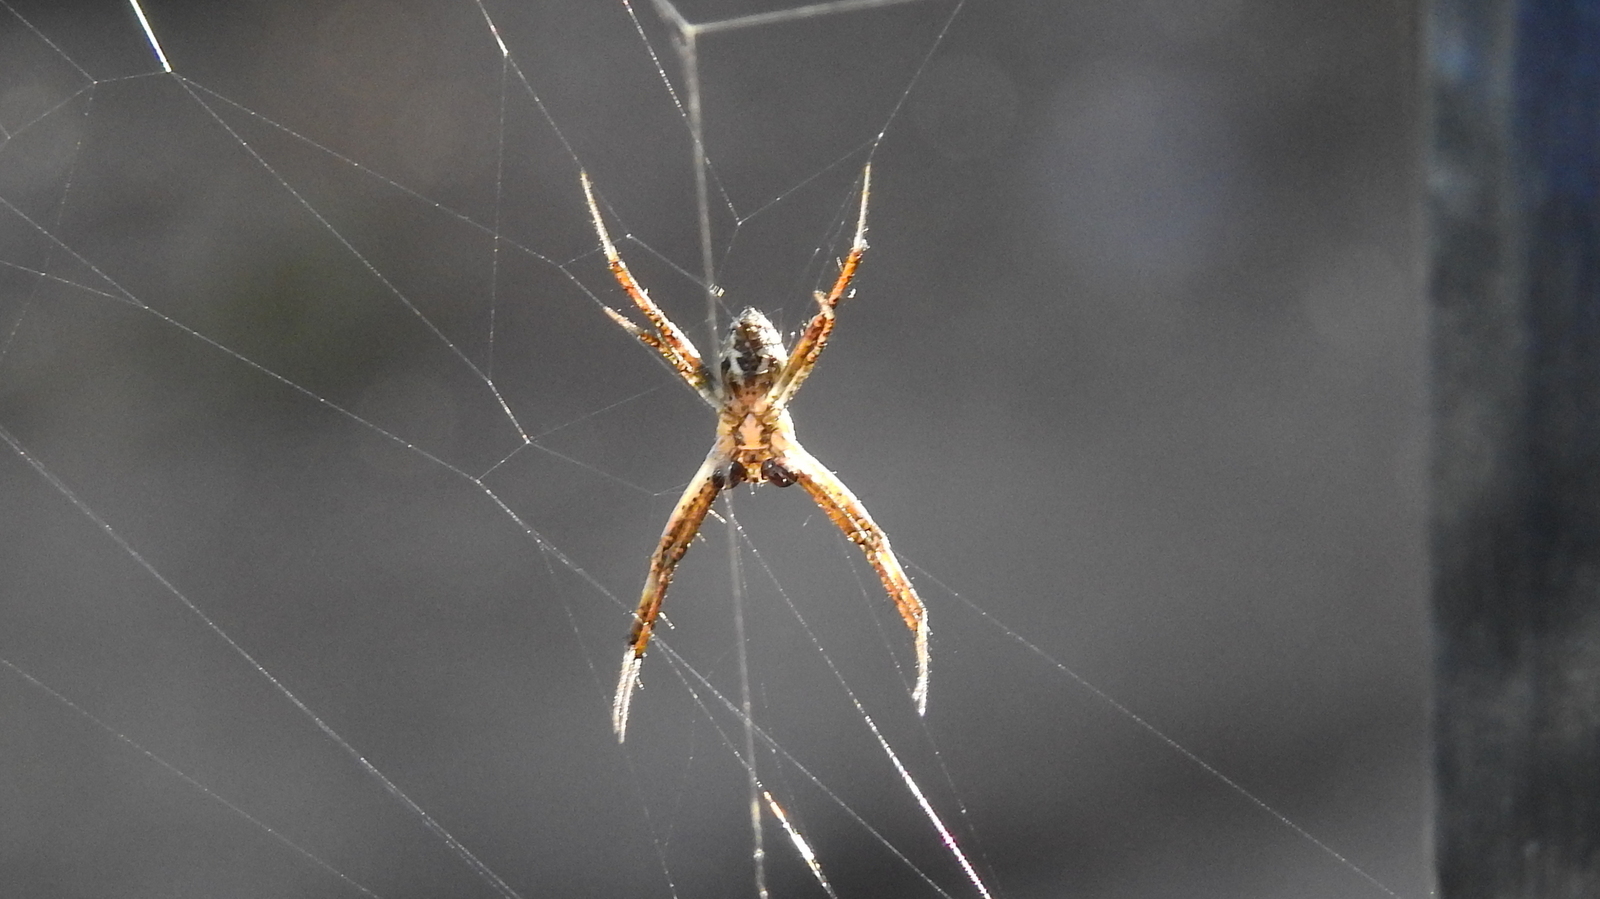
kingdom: Animalia
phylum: Arthropoda
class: Arachnida
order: Araneae
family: Araneidae
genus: Argiope
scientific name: Argiope argentata
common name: Orb weavers
